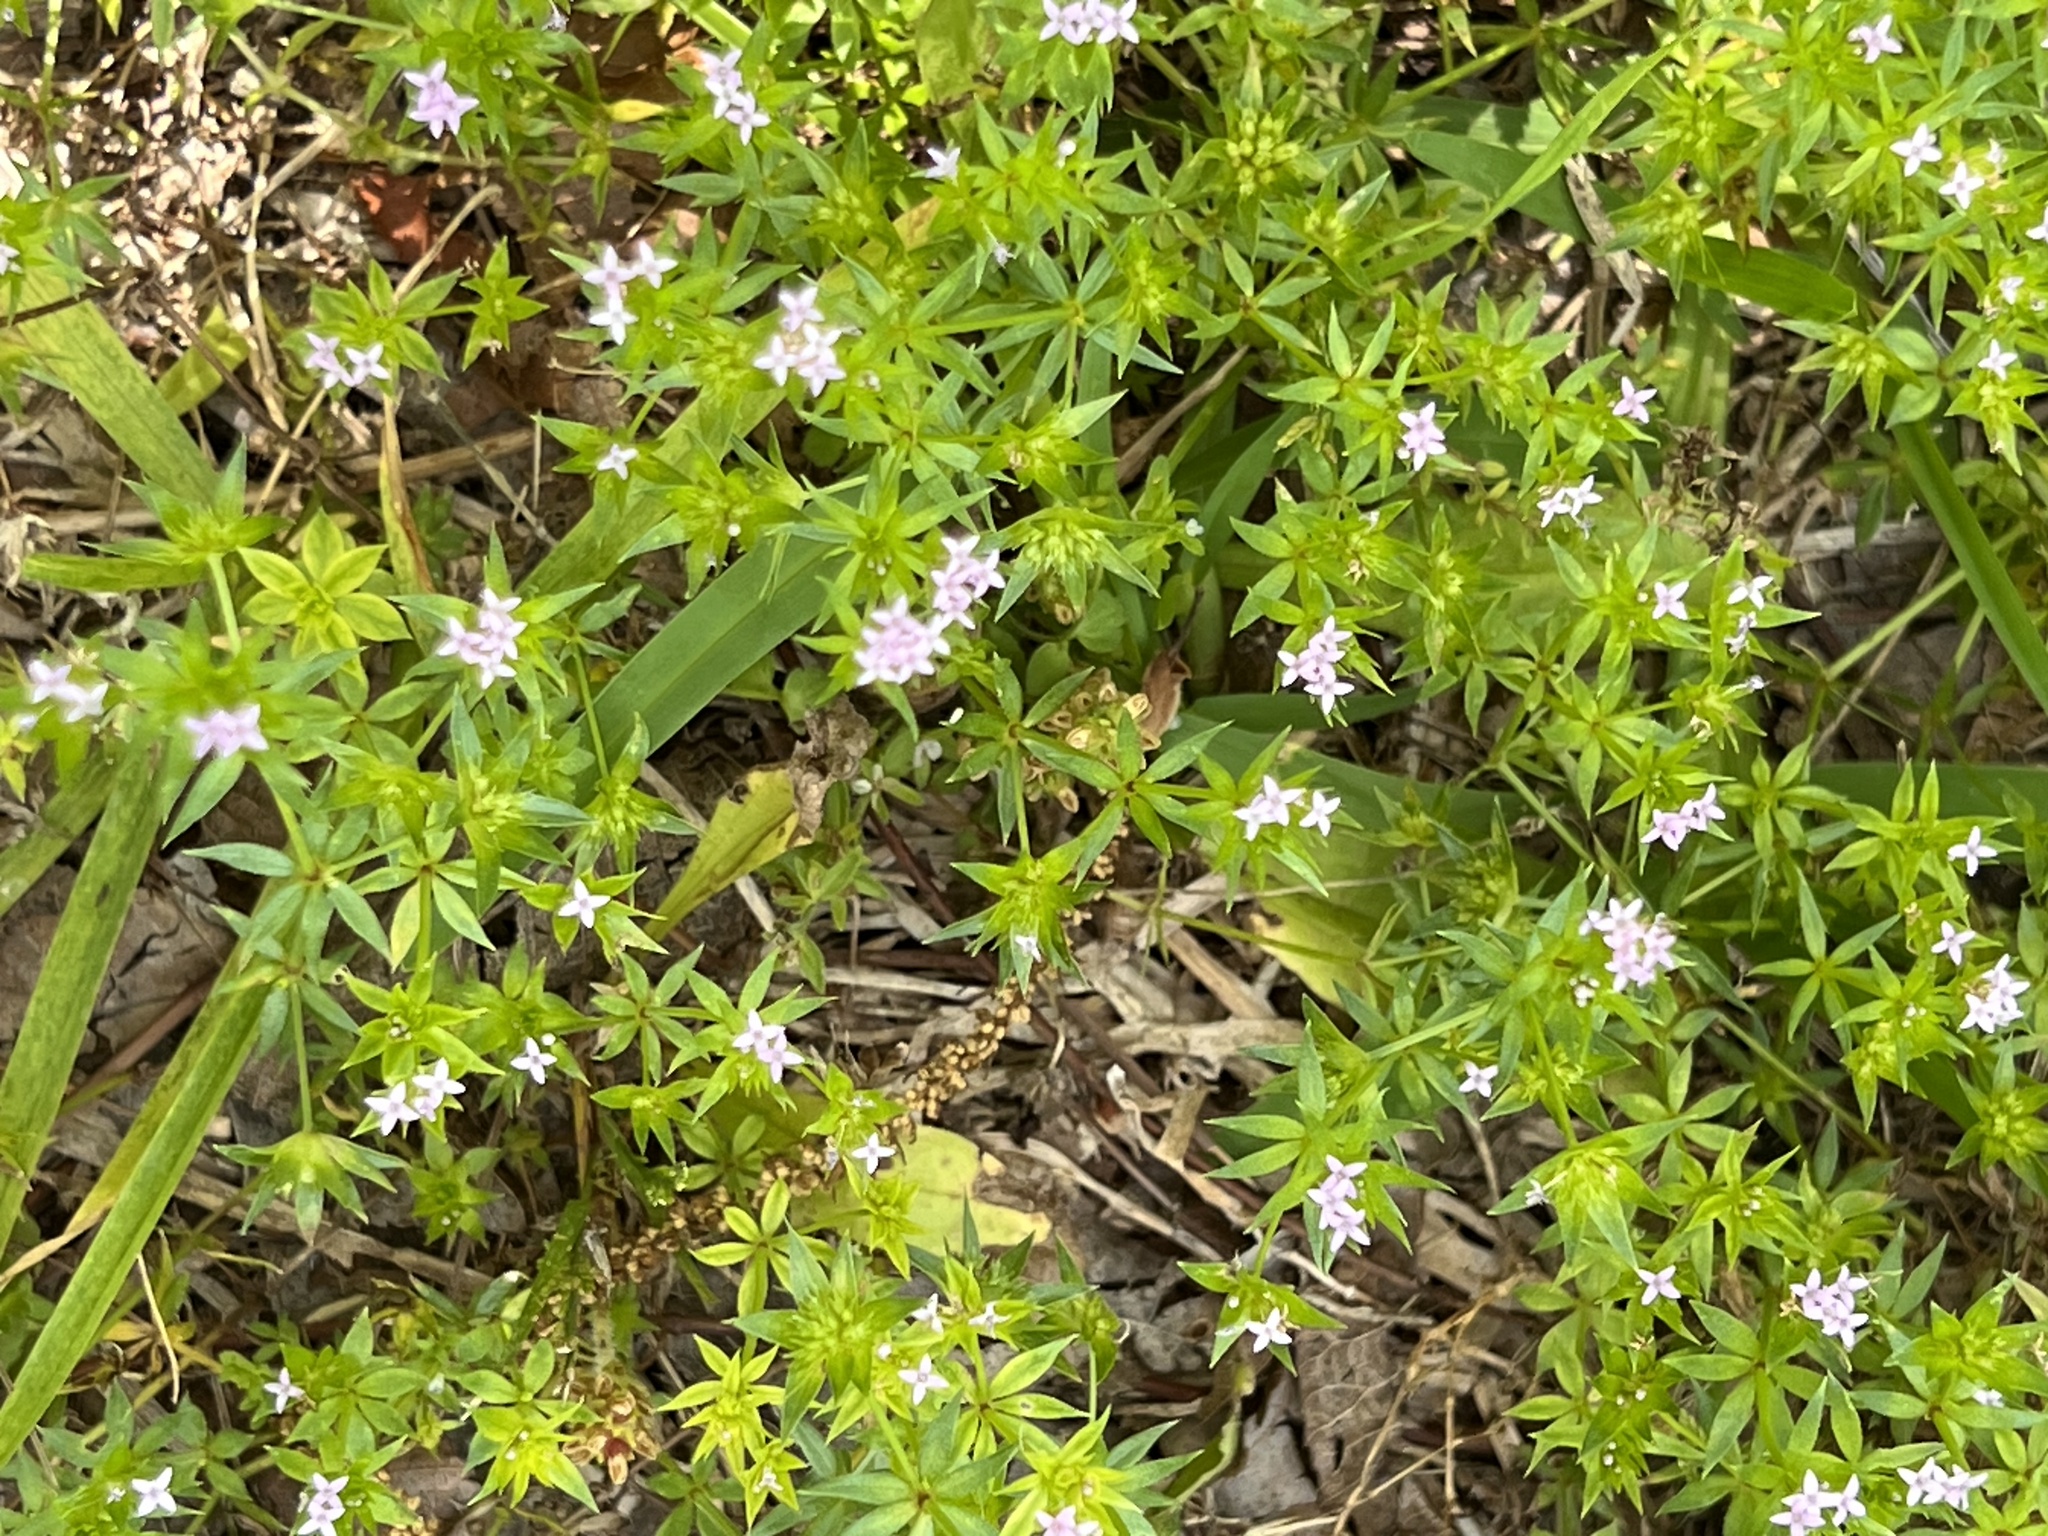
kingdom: Plantae
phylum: Tracheophyta
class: Magnoliopsida
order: Gentianales
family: Rubiaceae
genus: Sherardia
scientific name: Sherardia arvensis
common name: Field madder
